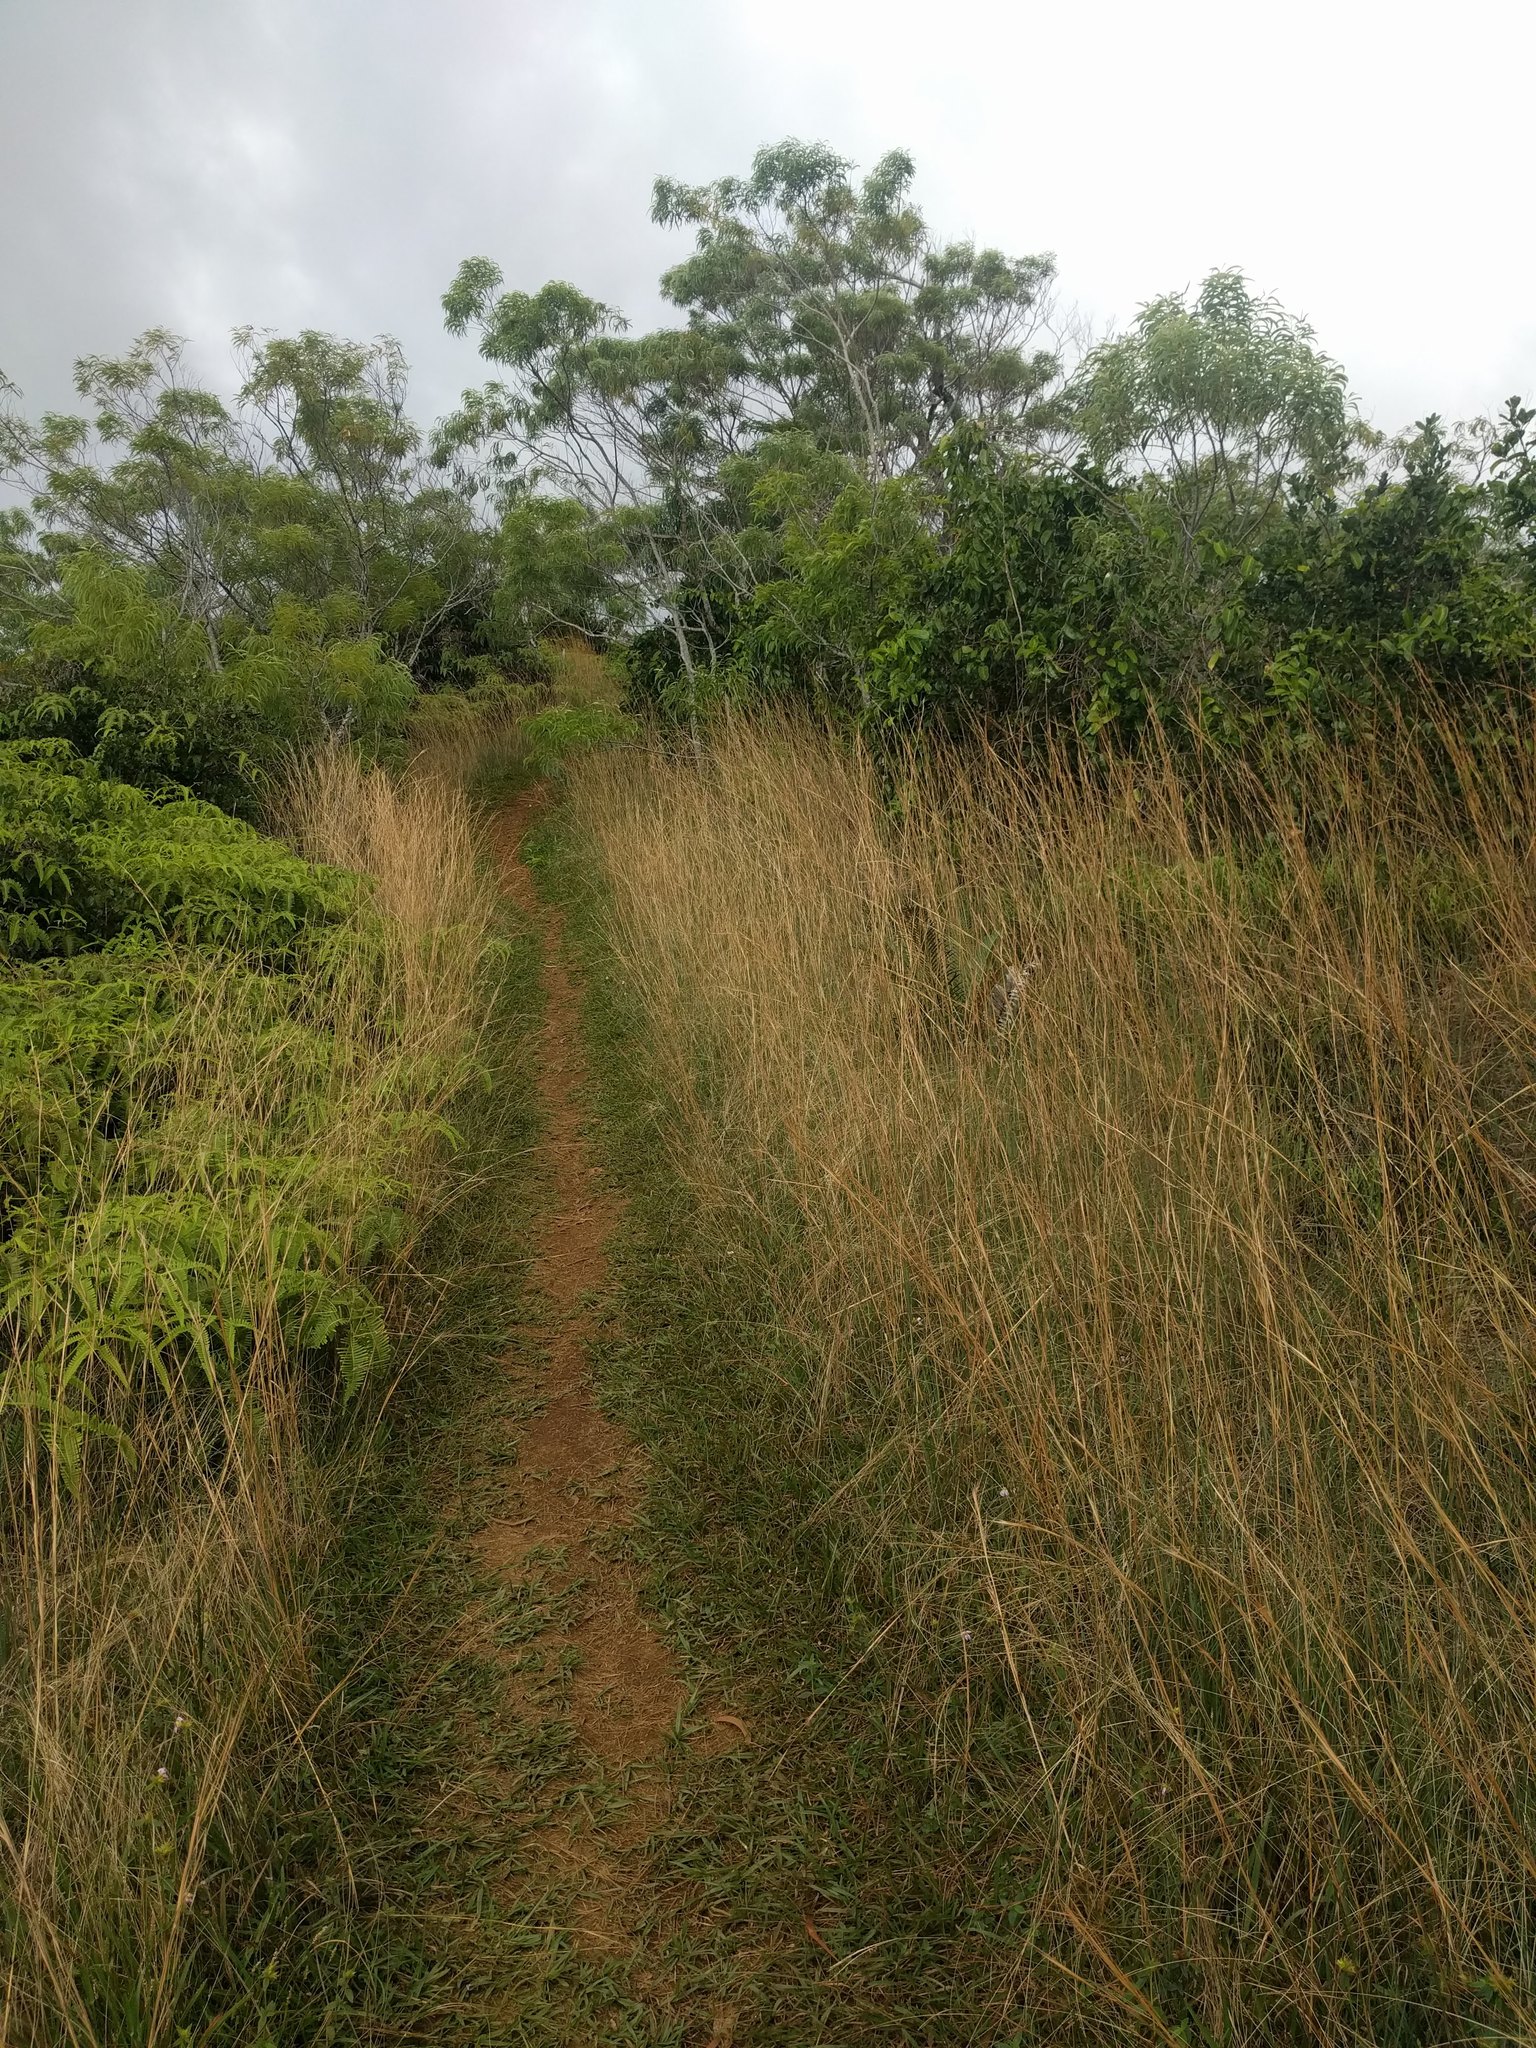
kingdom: Plantae
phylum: Tracheophyta
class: Liliopsida
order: Poales
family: Poaceae
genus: Andropogon
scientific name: Andropogon virginicus
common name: Broomsedge bluestem
